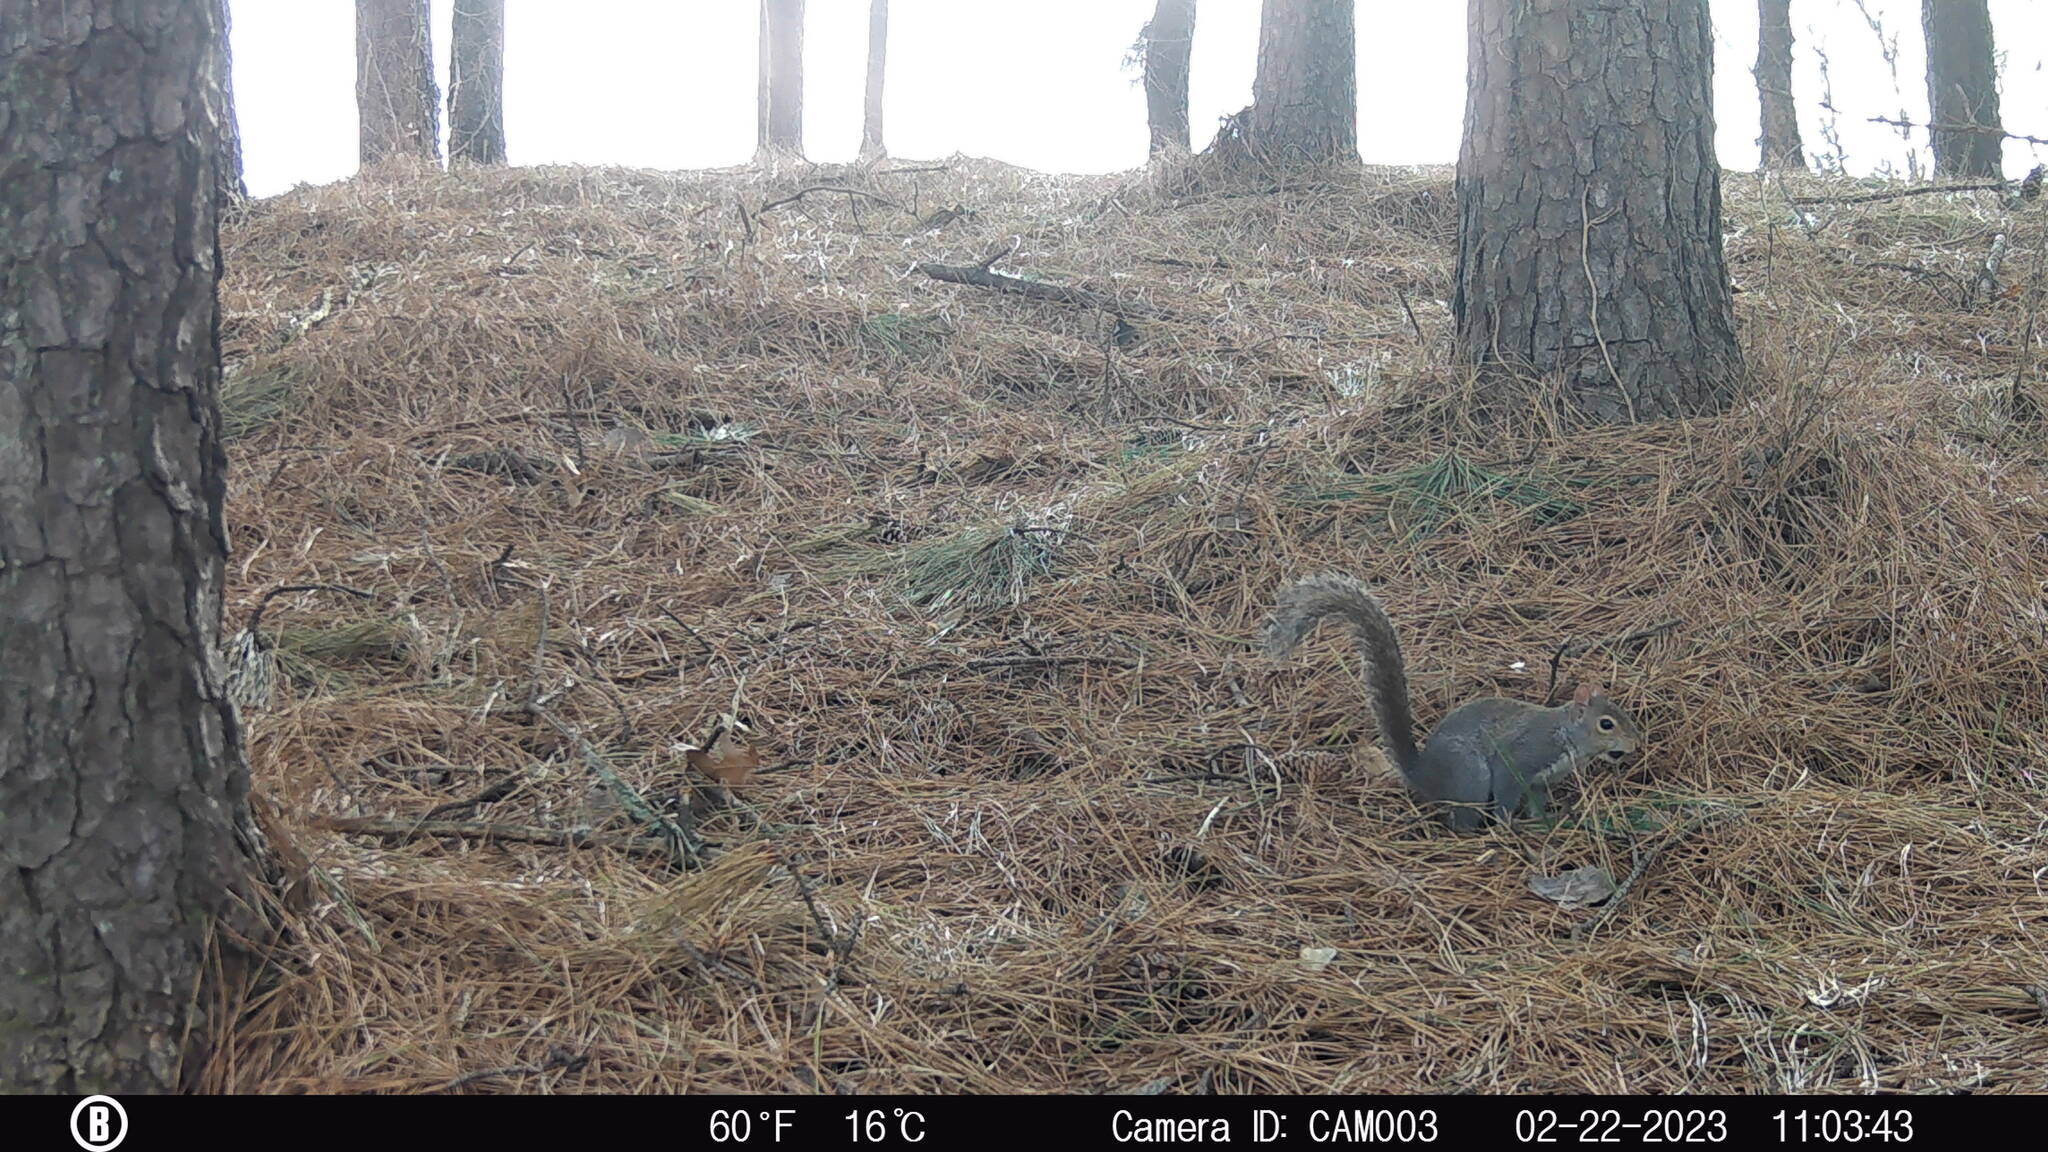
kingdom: Animalia
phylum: Chordata
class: Mammalia
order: Rodentia
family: Sciuridae
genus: Sciurus
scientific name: Sciurus carolinensis
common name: Eastern gray squirrel
